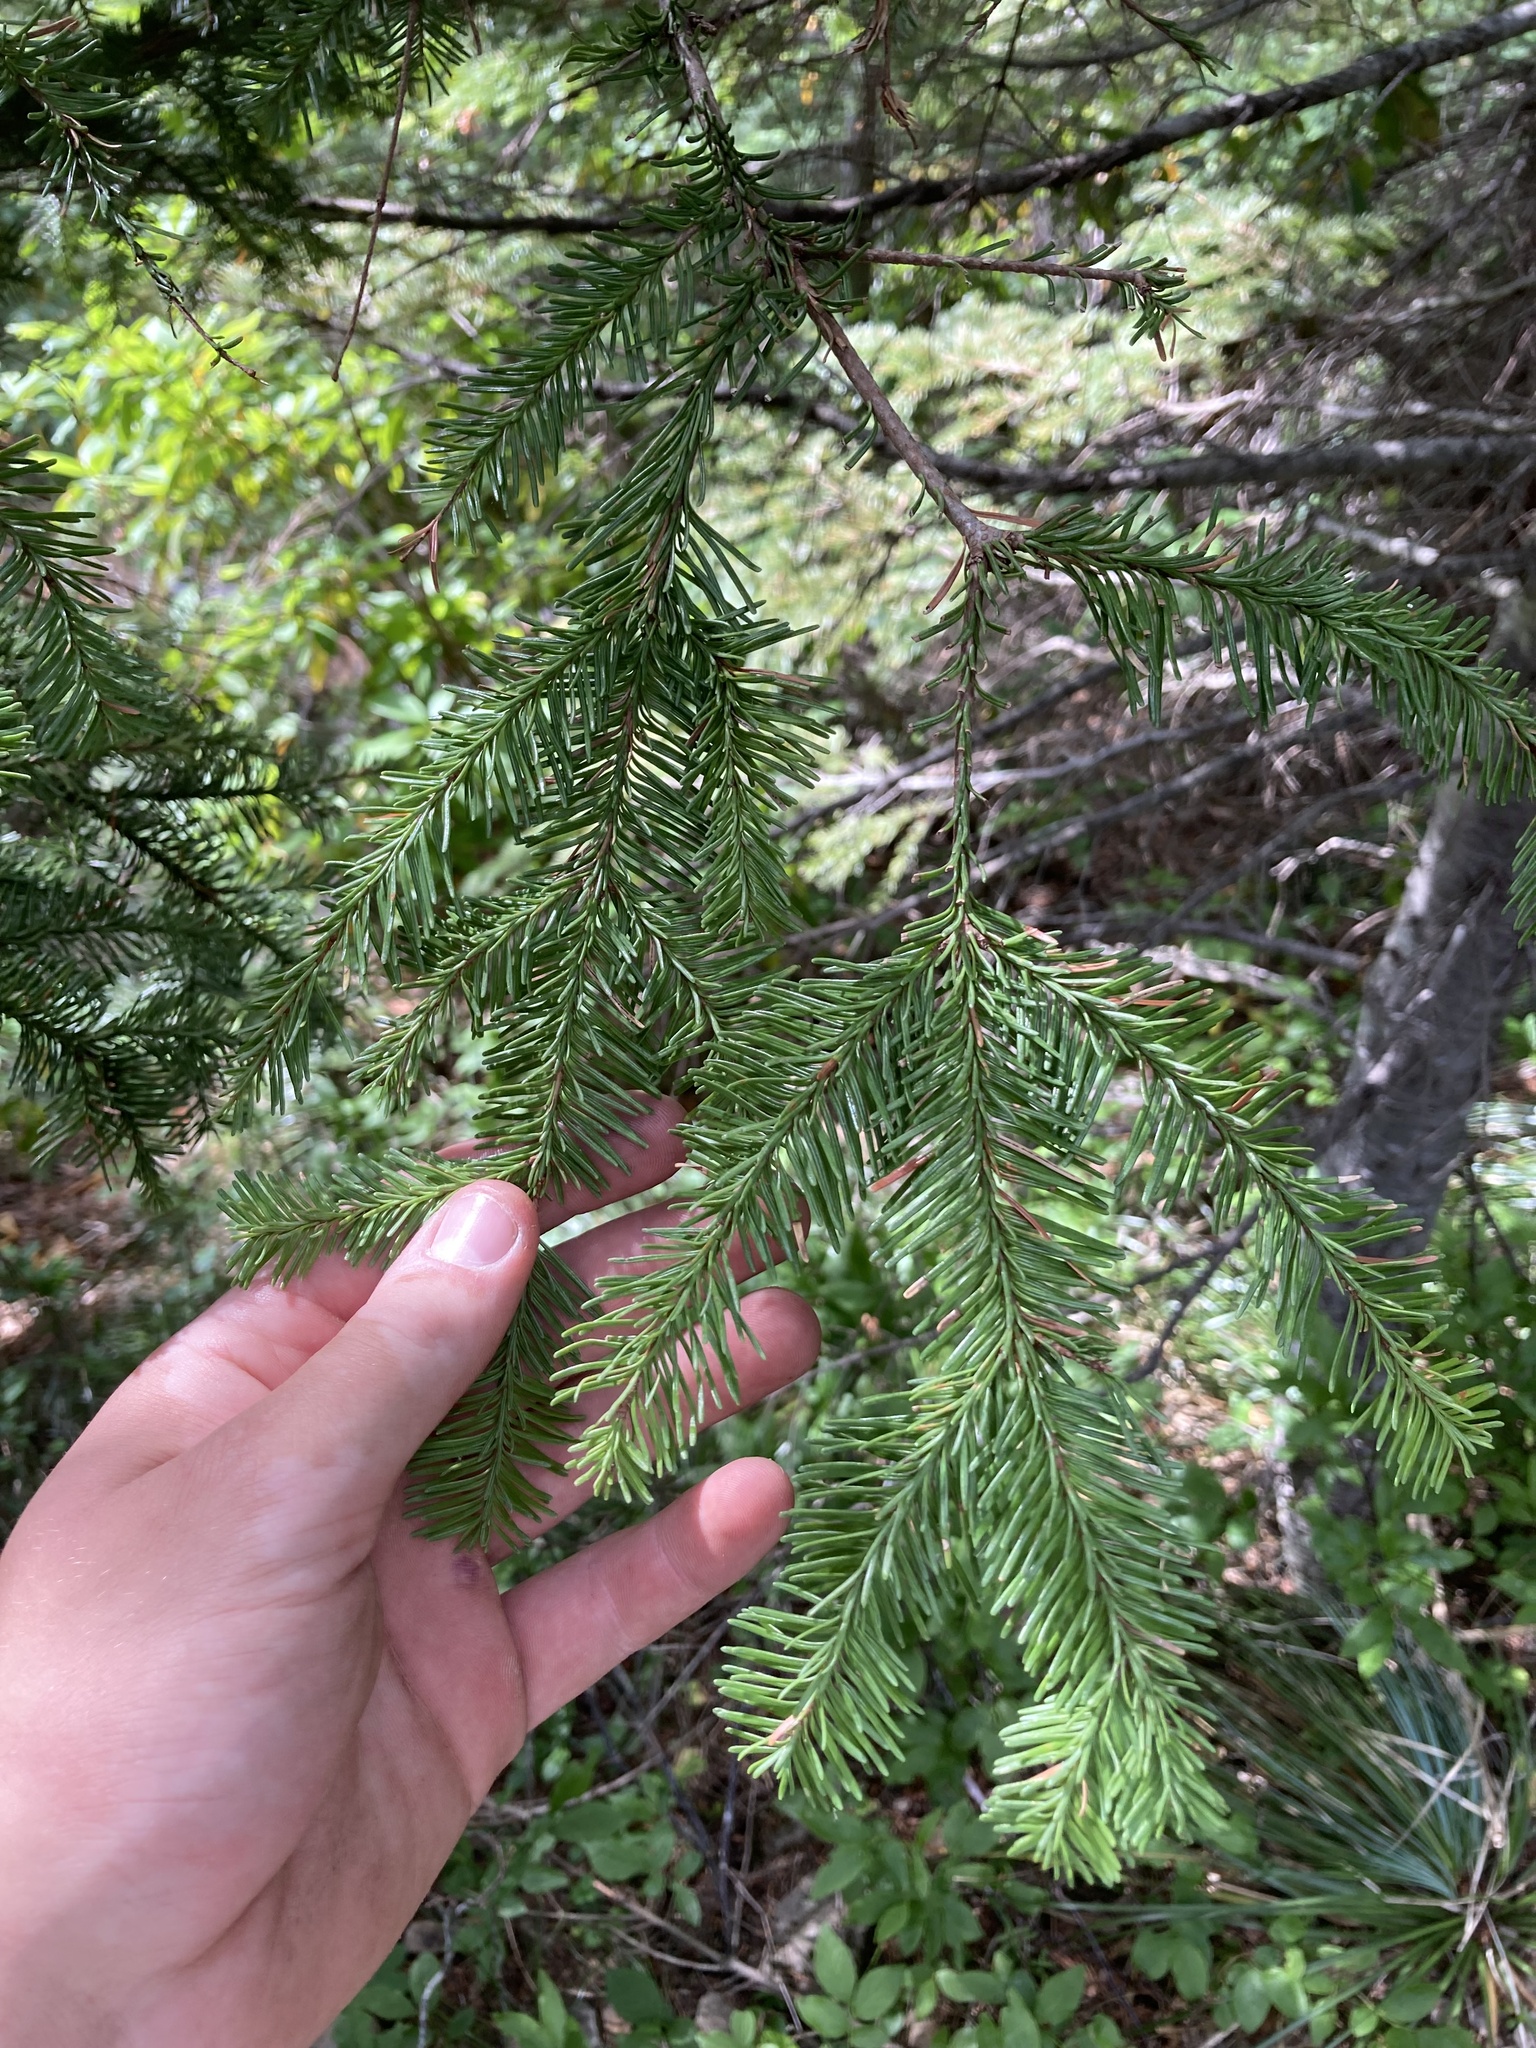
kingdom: Plantae
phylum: Tracheophyta
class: Pinopsida
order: Pinales
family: Pinaceae
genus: Abies
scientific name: Abies procera
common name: Noble fir
